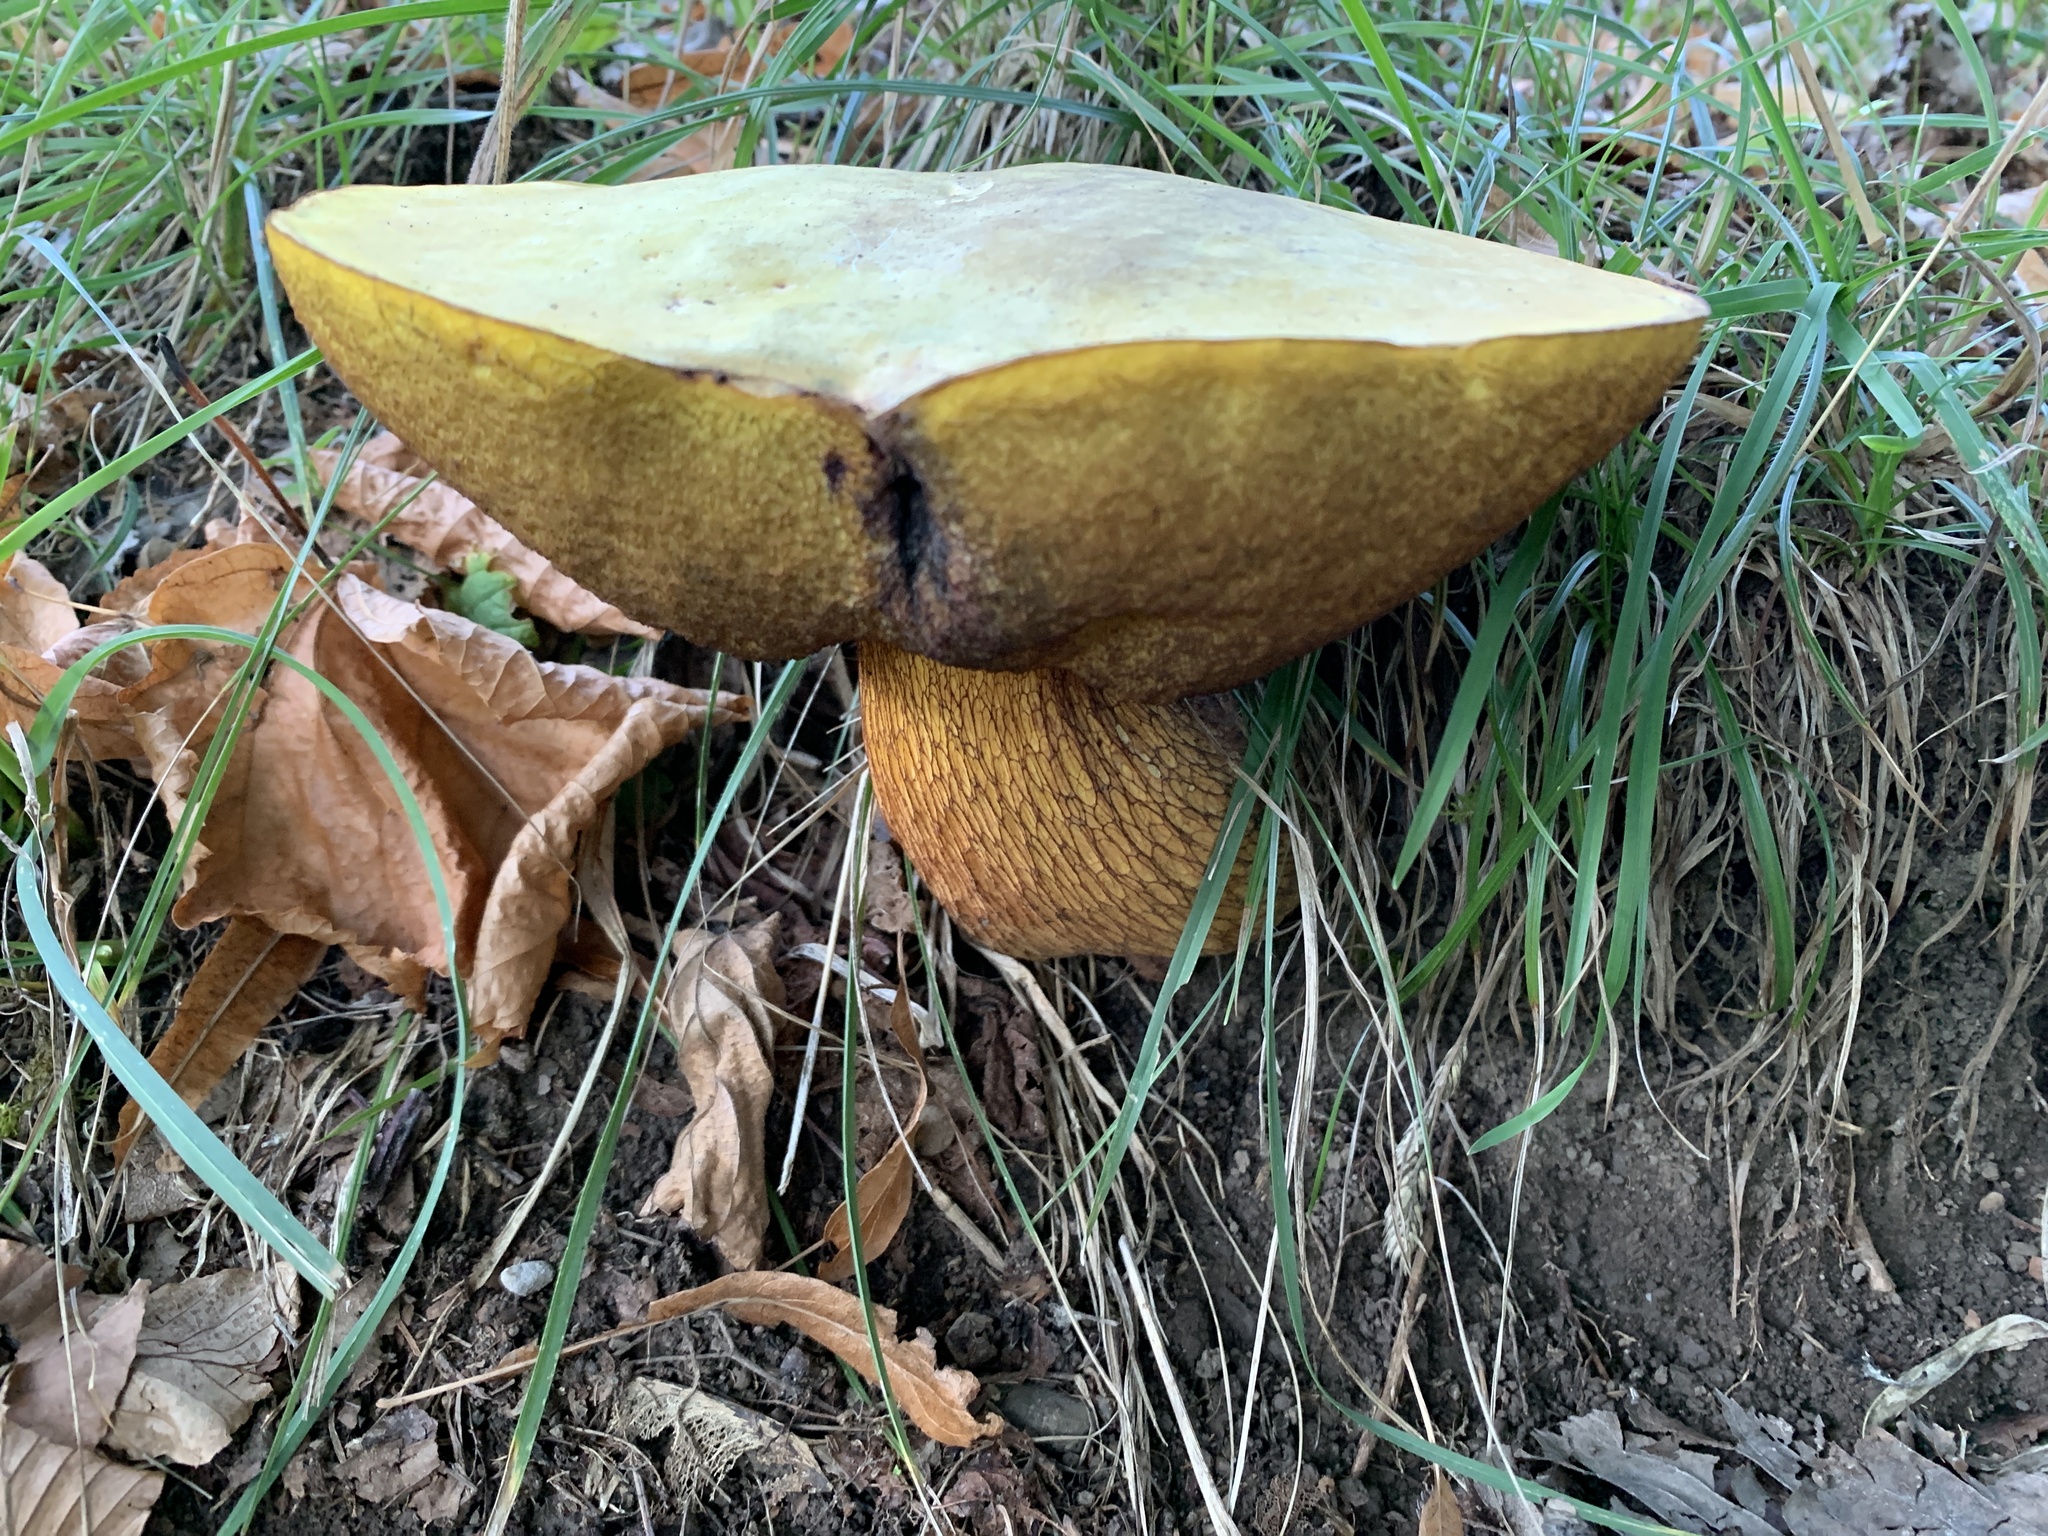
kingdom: Fungi
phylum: Basidiomycota
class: Agaricomycetes
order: Boletales
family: Boletaceae
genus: Suillellus
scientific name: Suillellus luridus
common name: Lurid bolete
